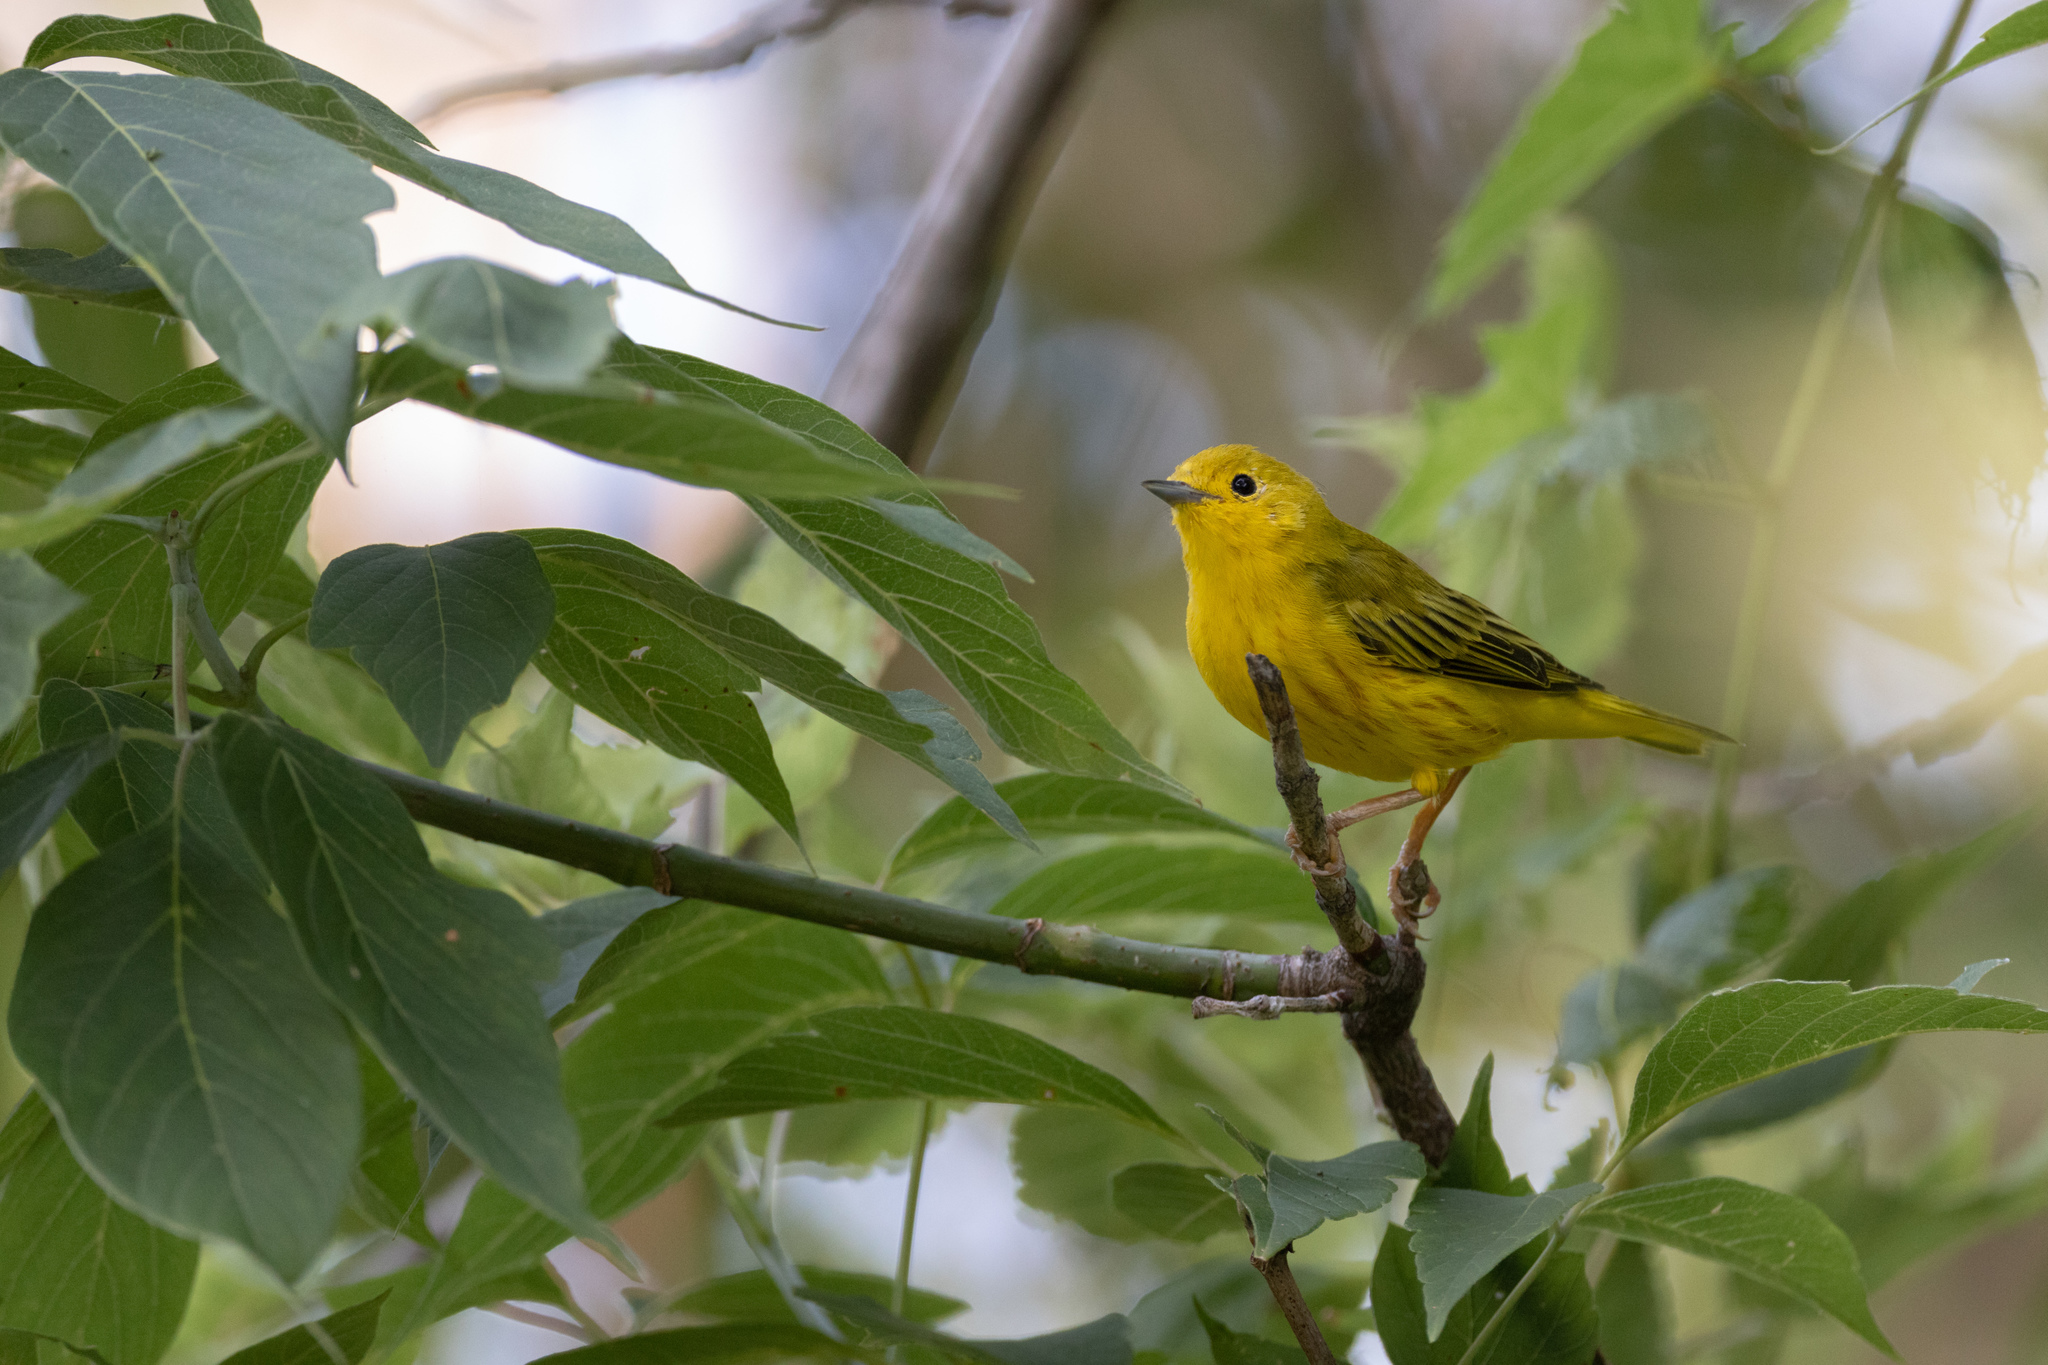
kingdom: Animalia
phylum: Chordata
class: Aves
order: Passeriformes
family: Parulidae
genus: Setophaga
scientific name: Setophaga petechia
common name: Yellow warbler
